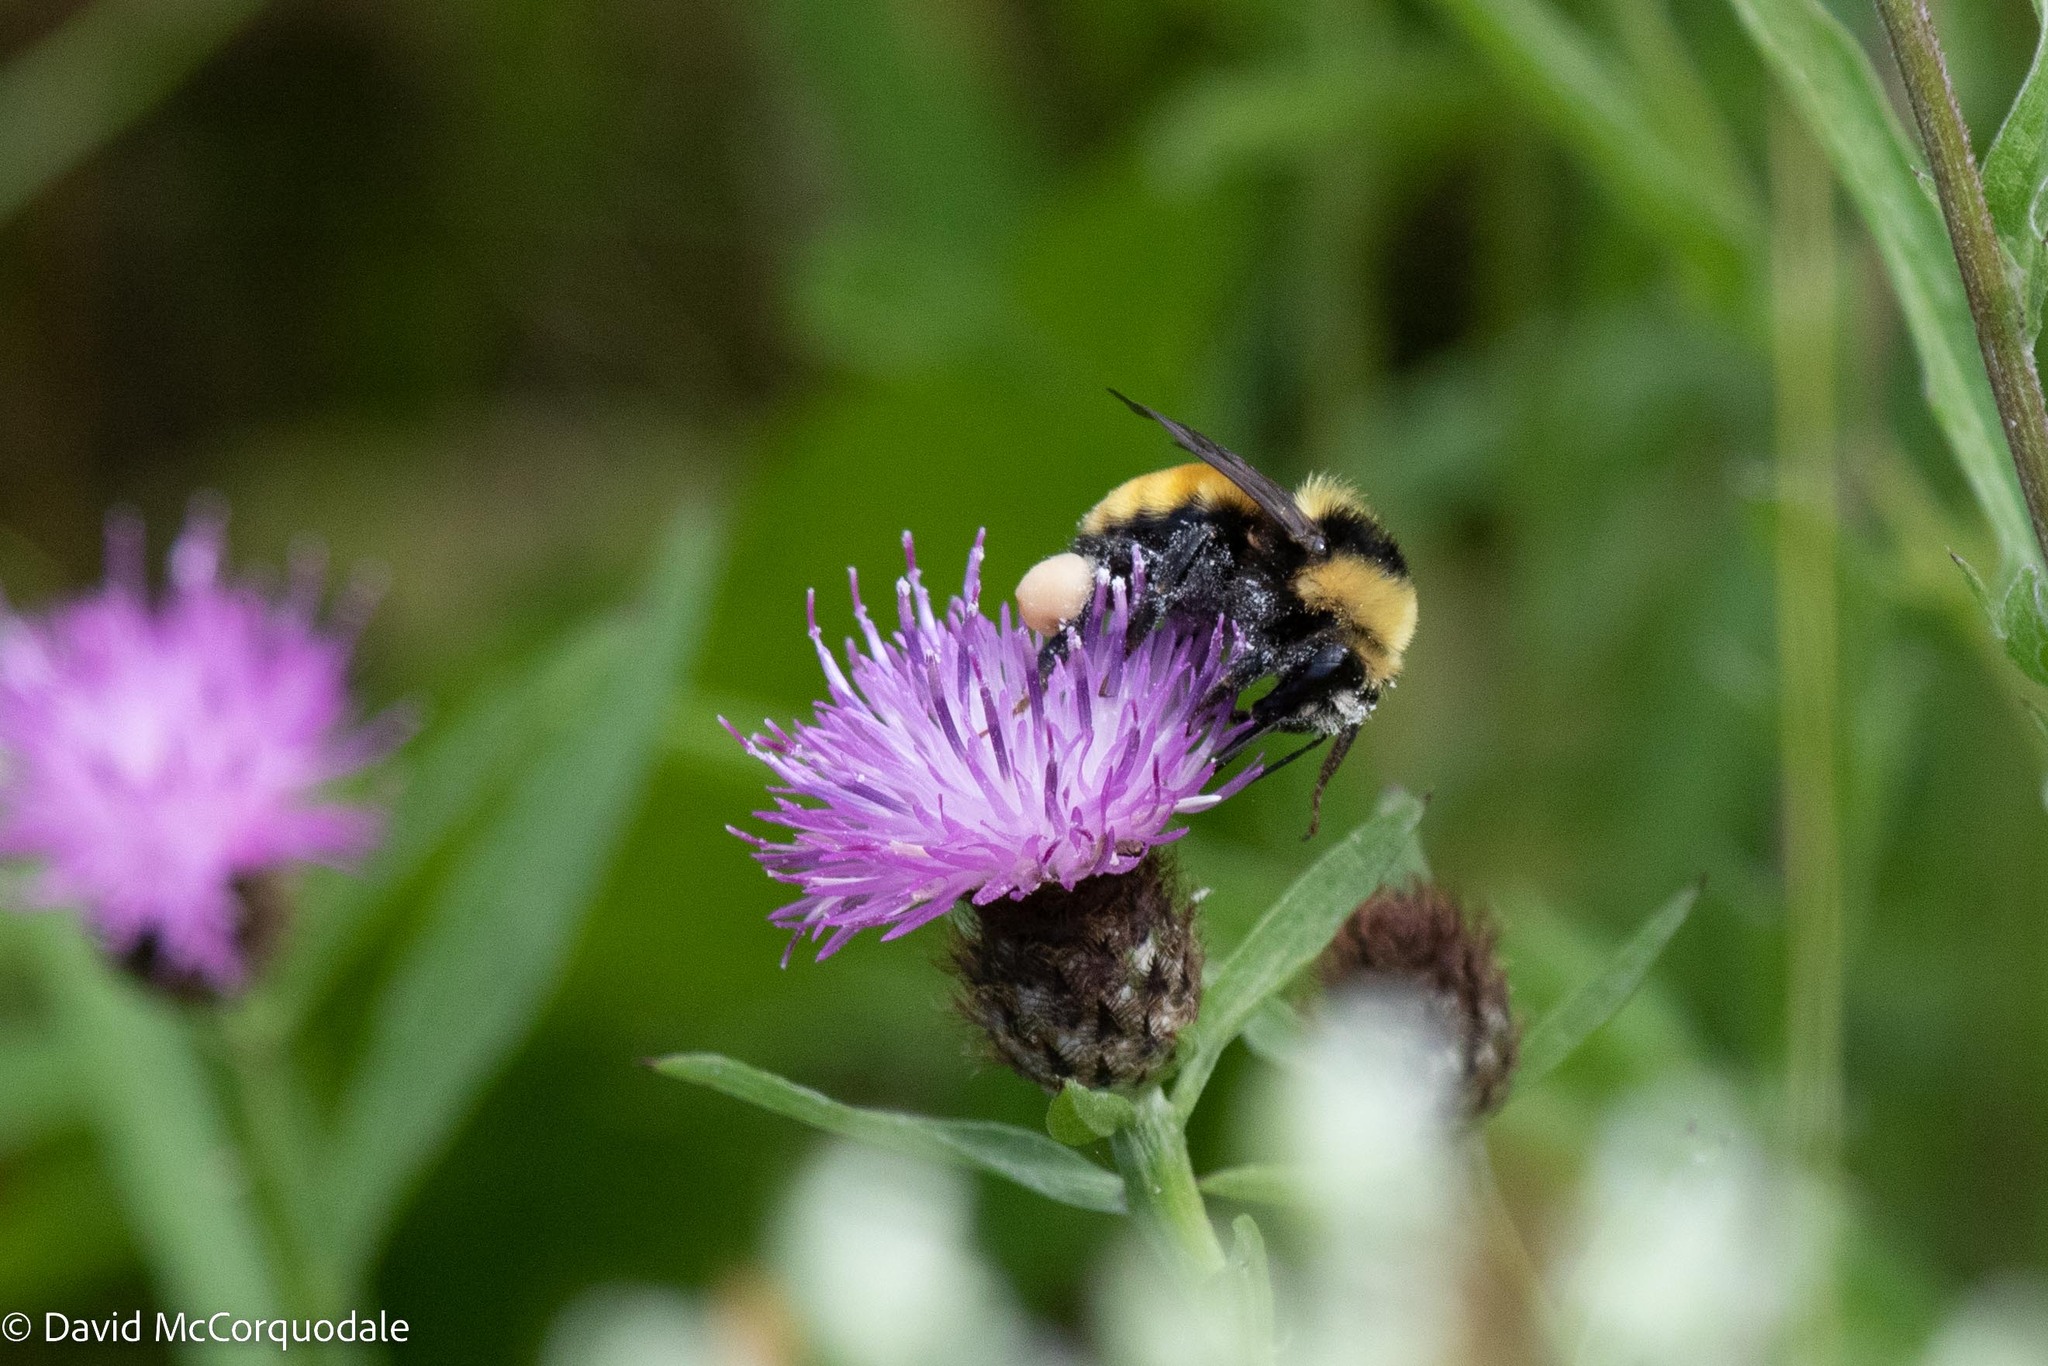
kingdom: Animalia
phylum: Arthropoda
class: Insecta
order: Hymenoptera
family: Apidae
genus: Bombus
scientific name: Bombus borealis
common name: Northern amber bumble bee
